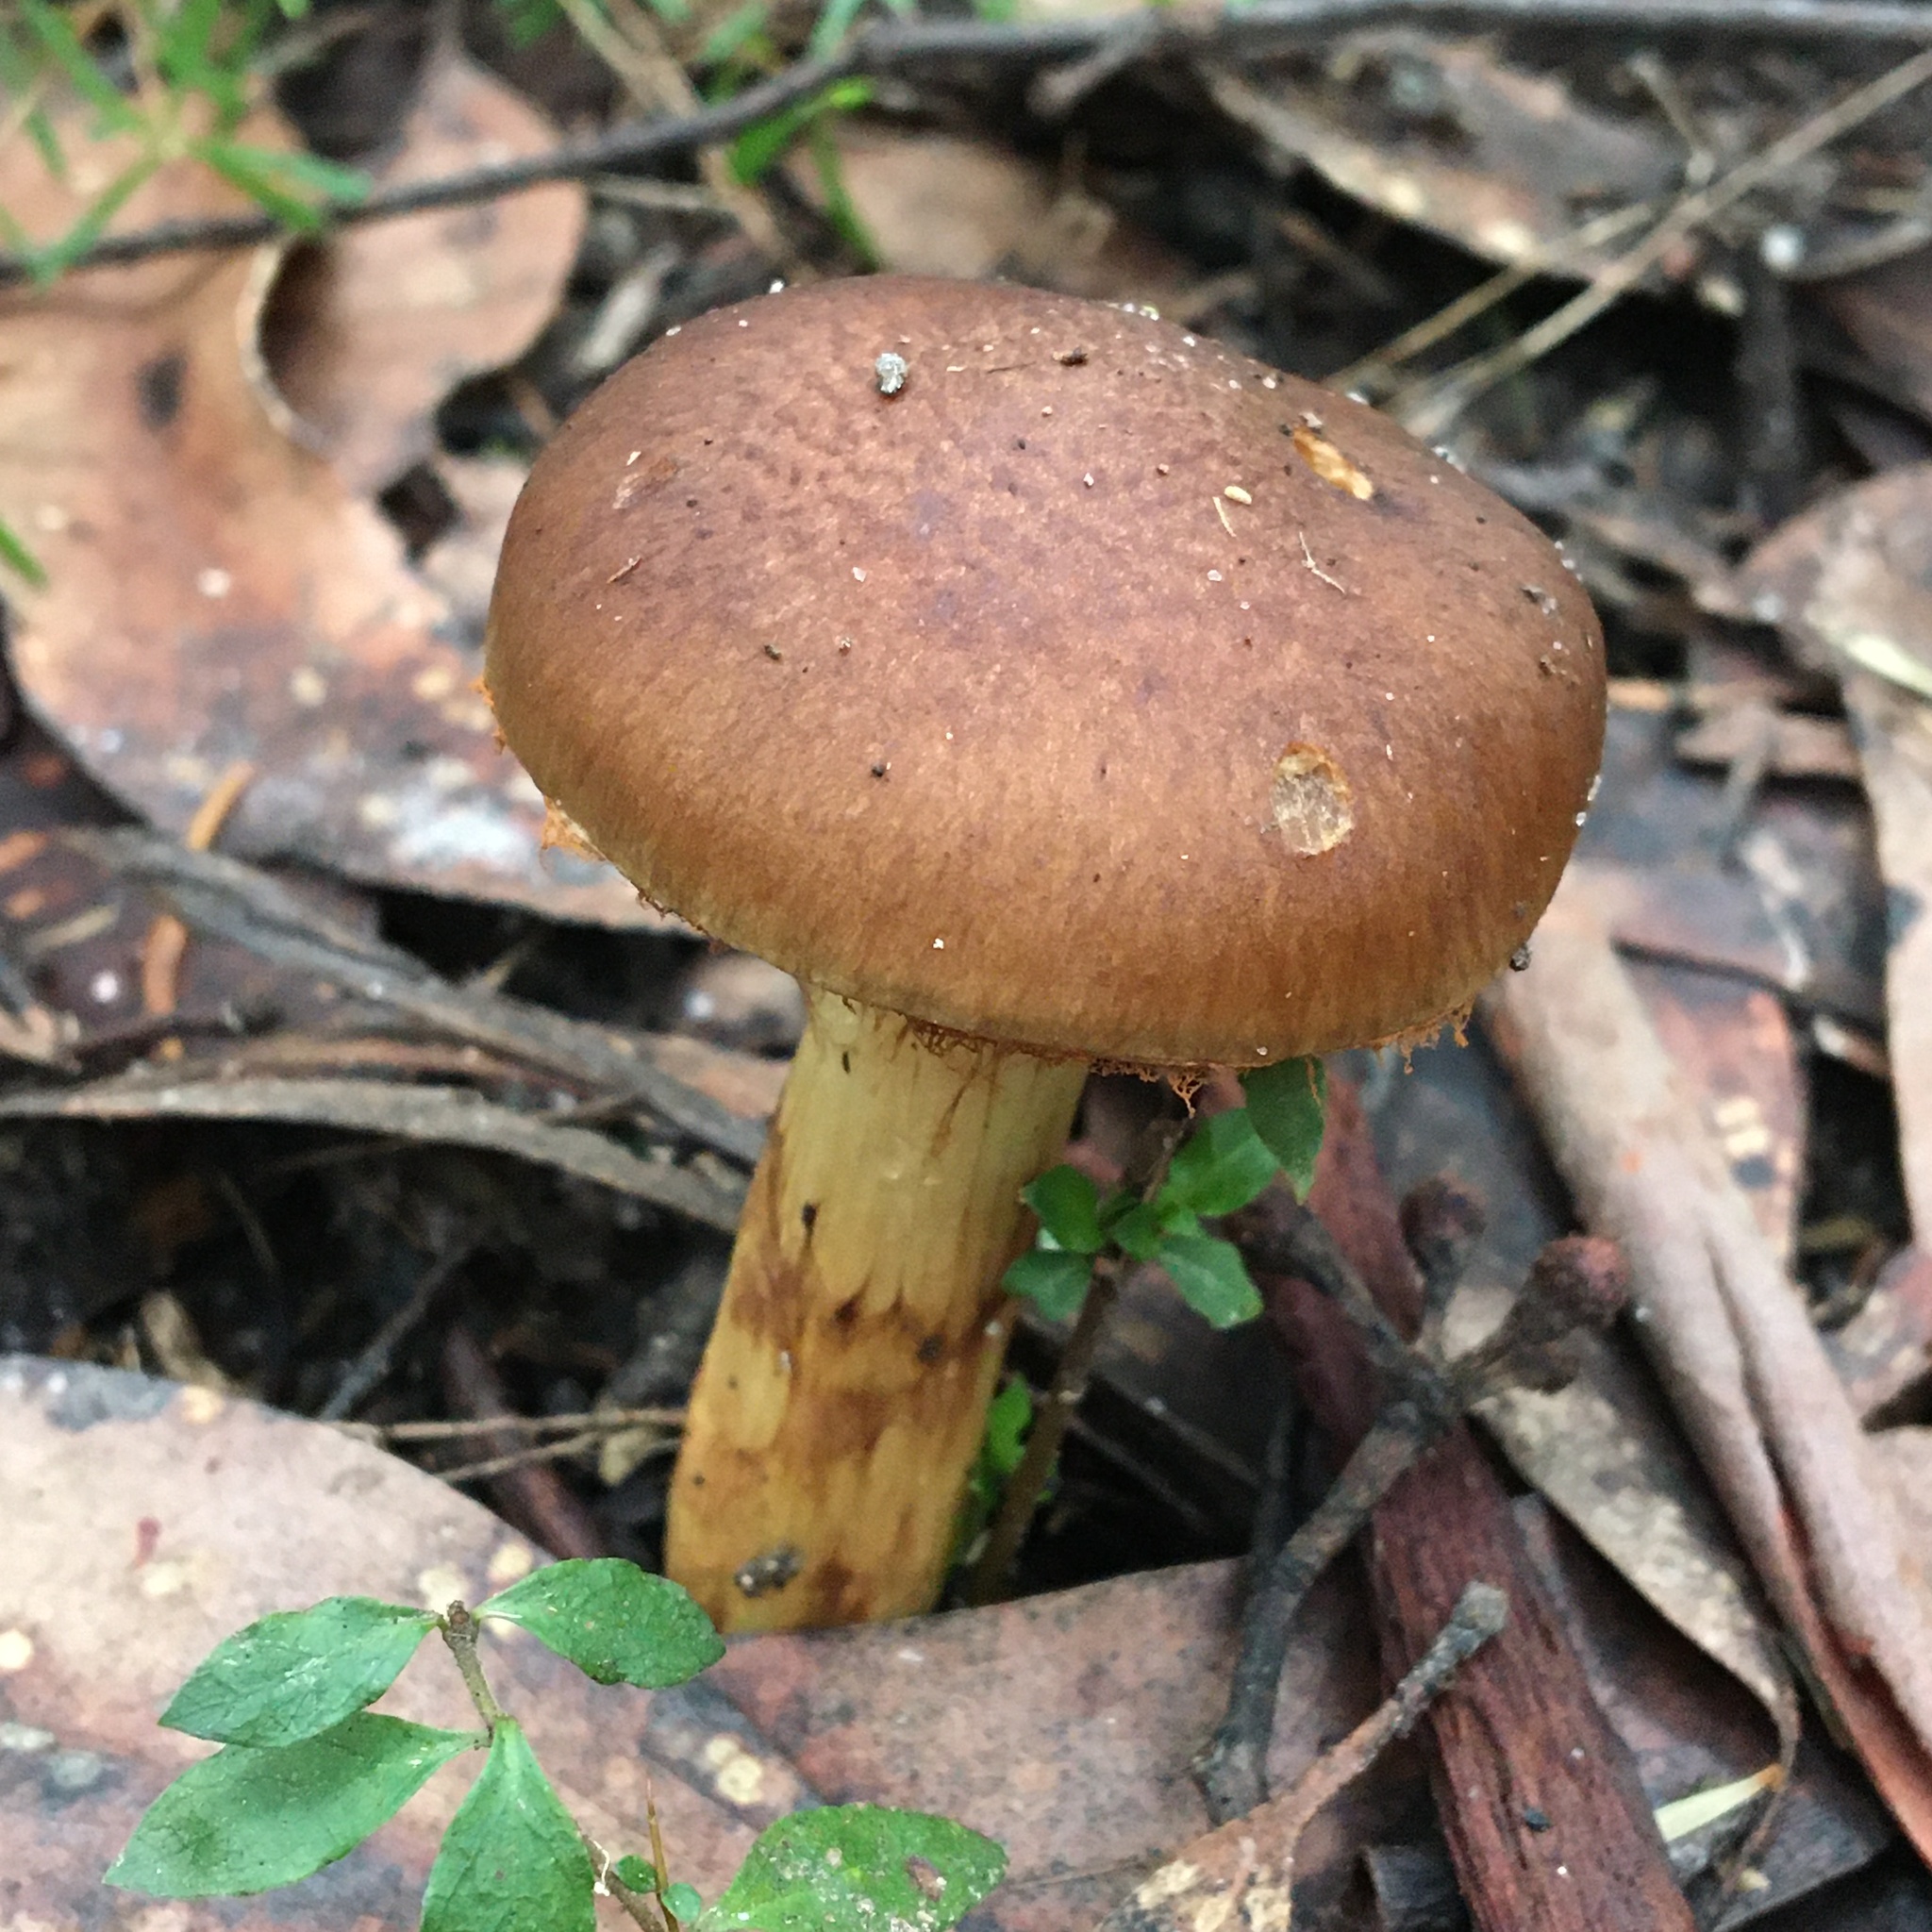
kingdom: Fungi
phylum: Basidiomycota
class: Agaricomycetes
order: Agaricales
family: Cortinariaceae
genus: Cortinarius
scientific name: Cortinarius clelandii
